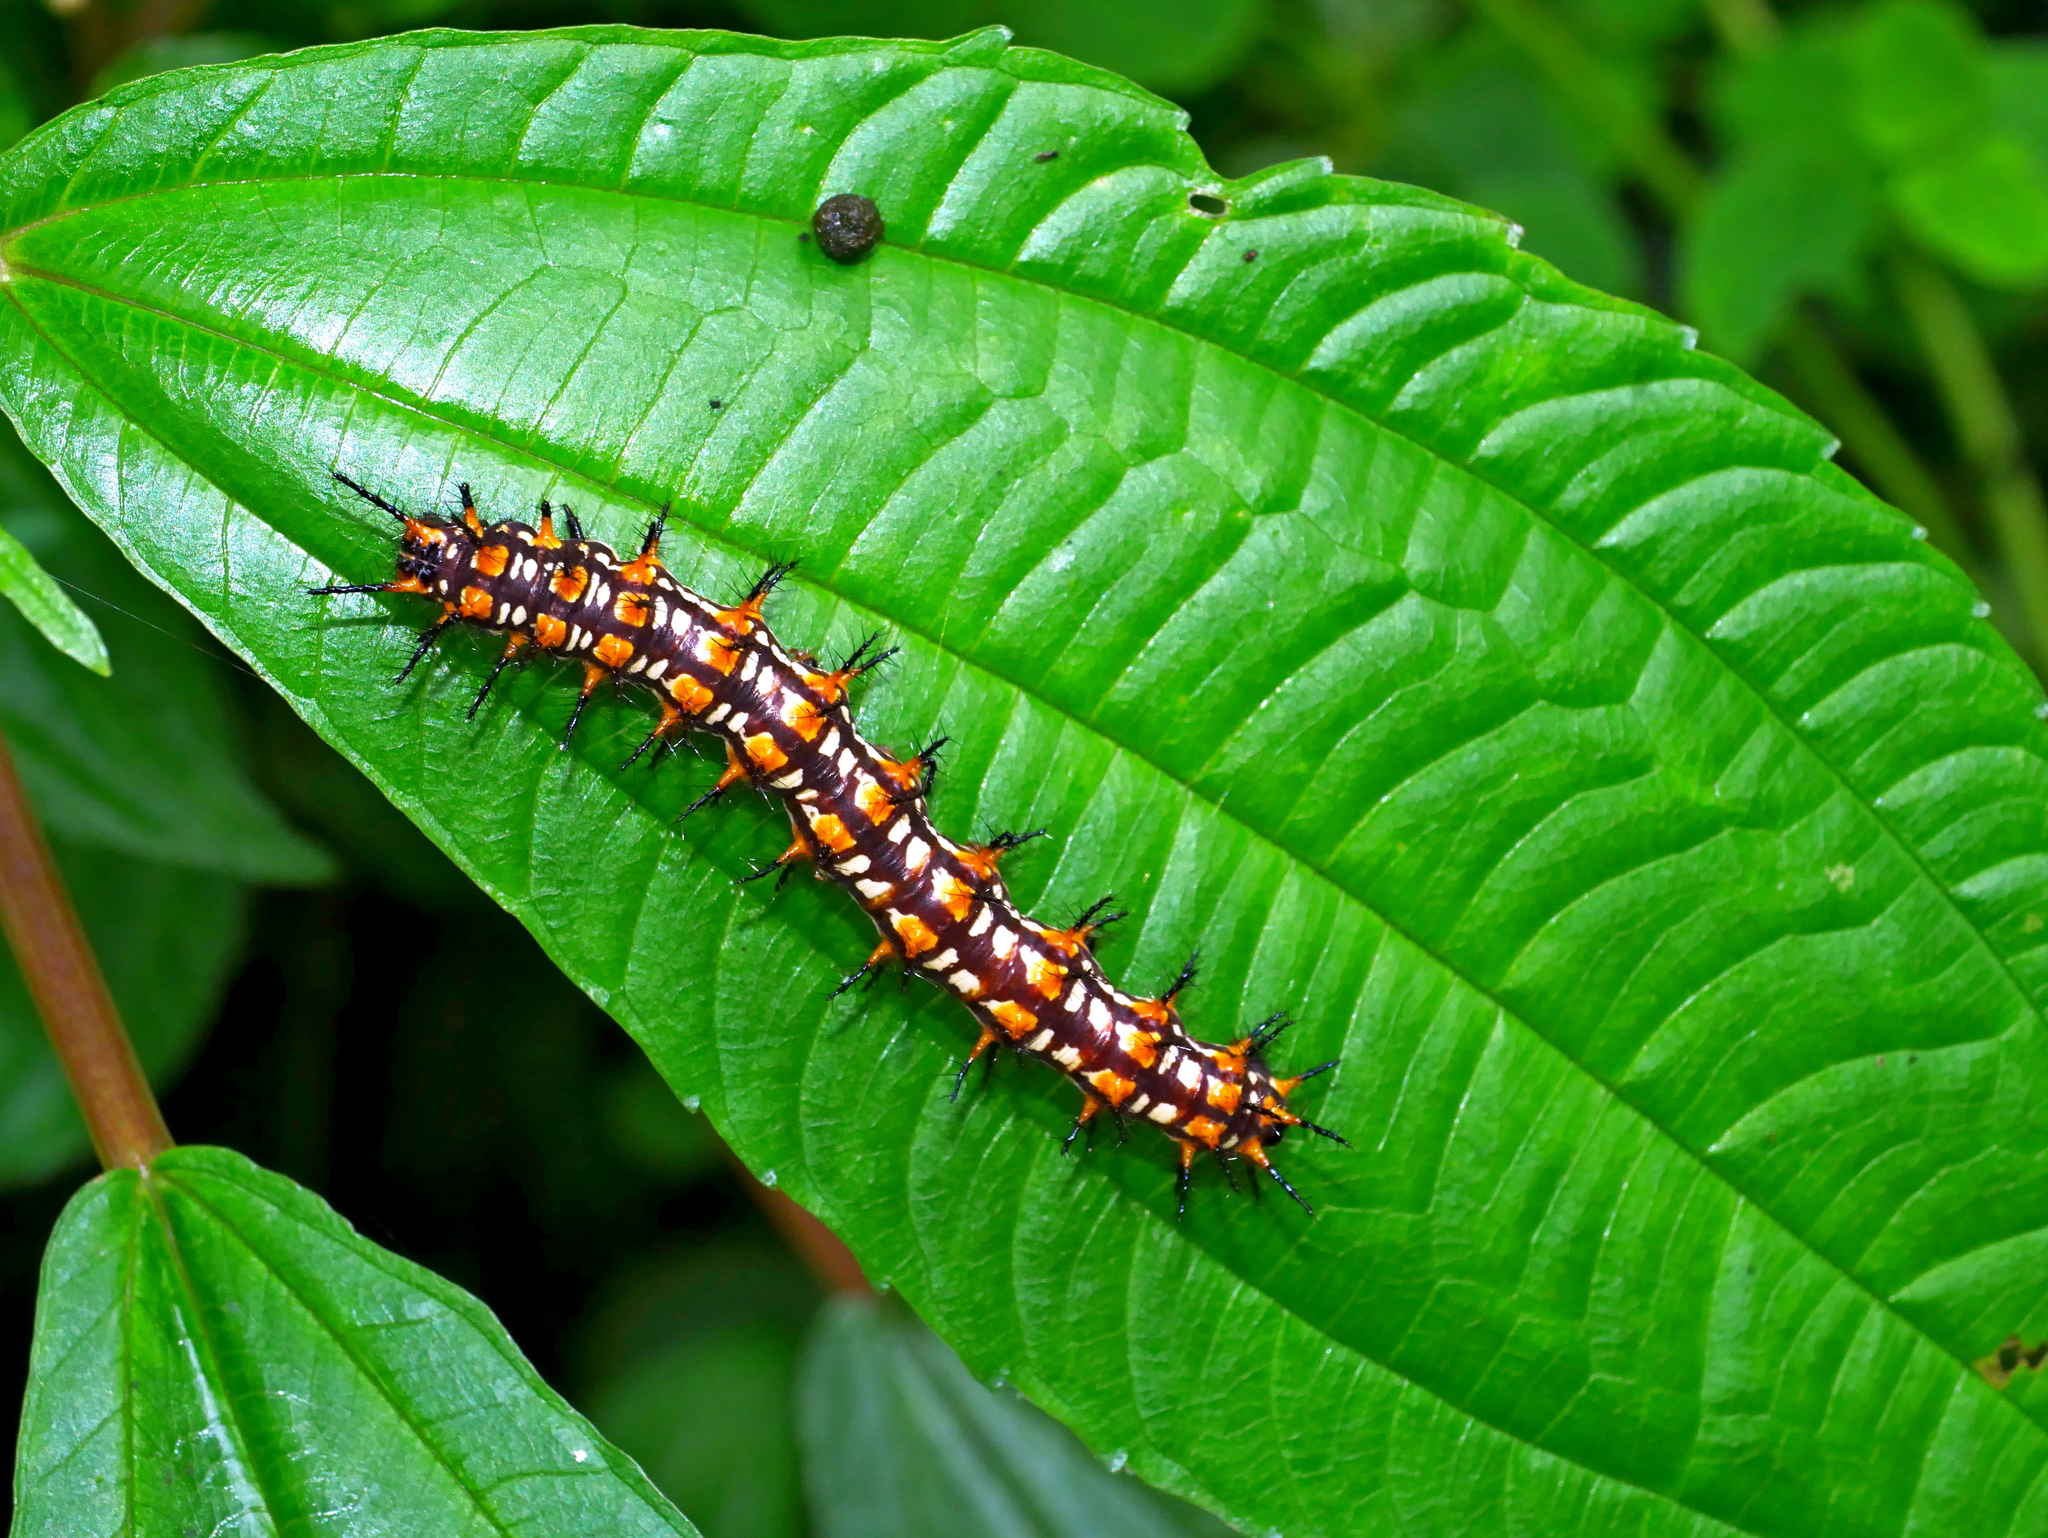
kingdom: Animalia
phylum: Arthropoda
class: Insecta
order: Lepidoptera
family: Nymphalidae
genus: Acraea
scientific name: Acraea Telchinia issoria
